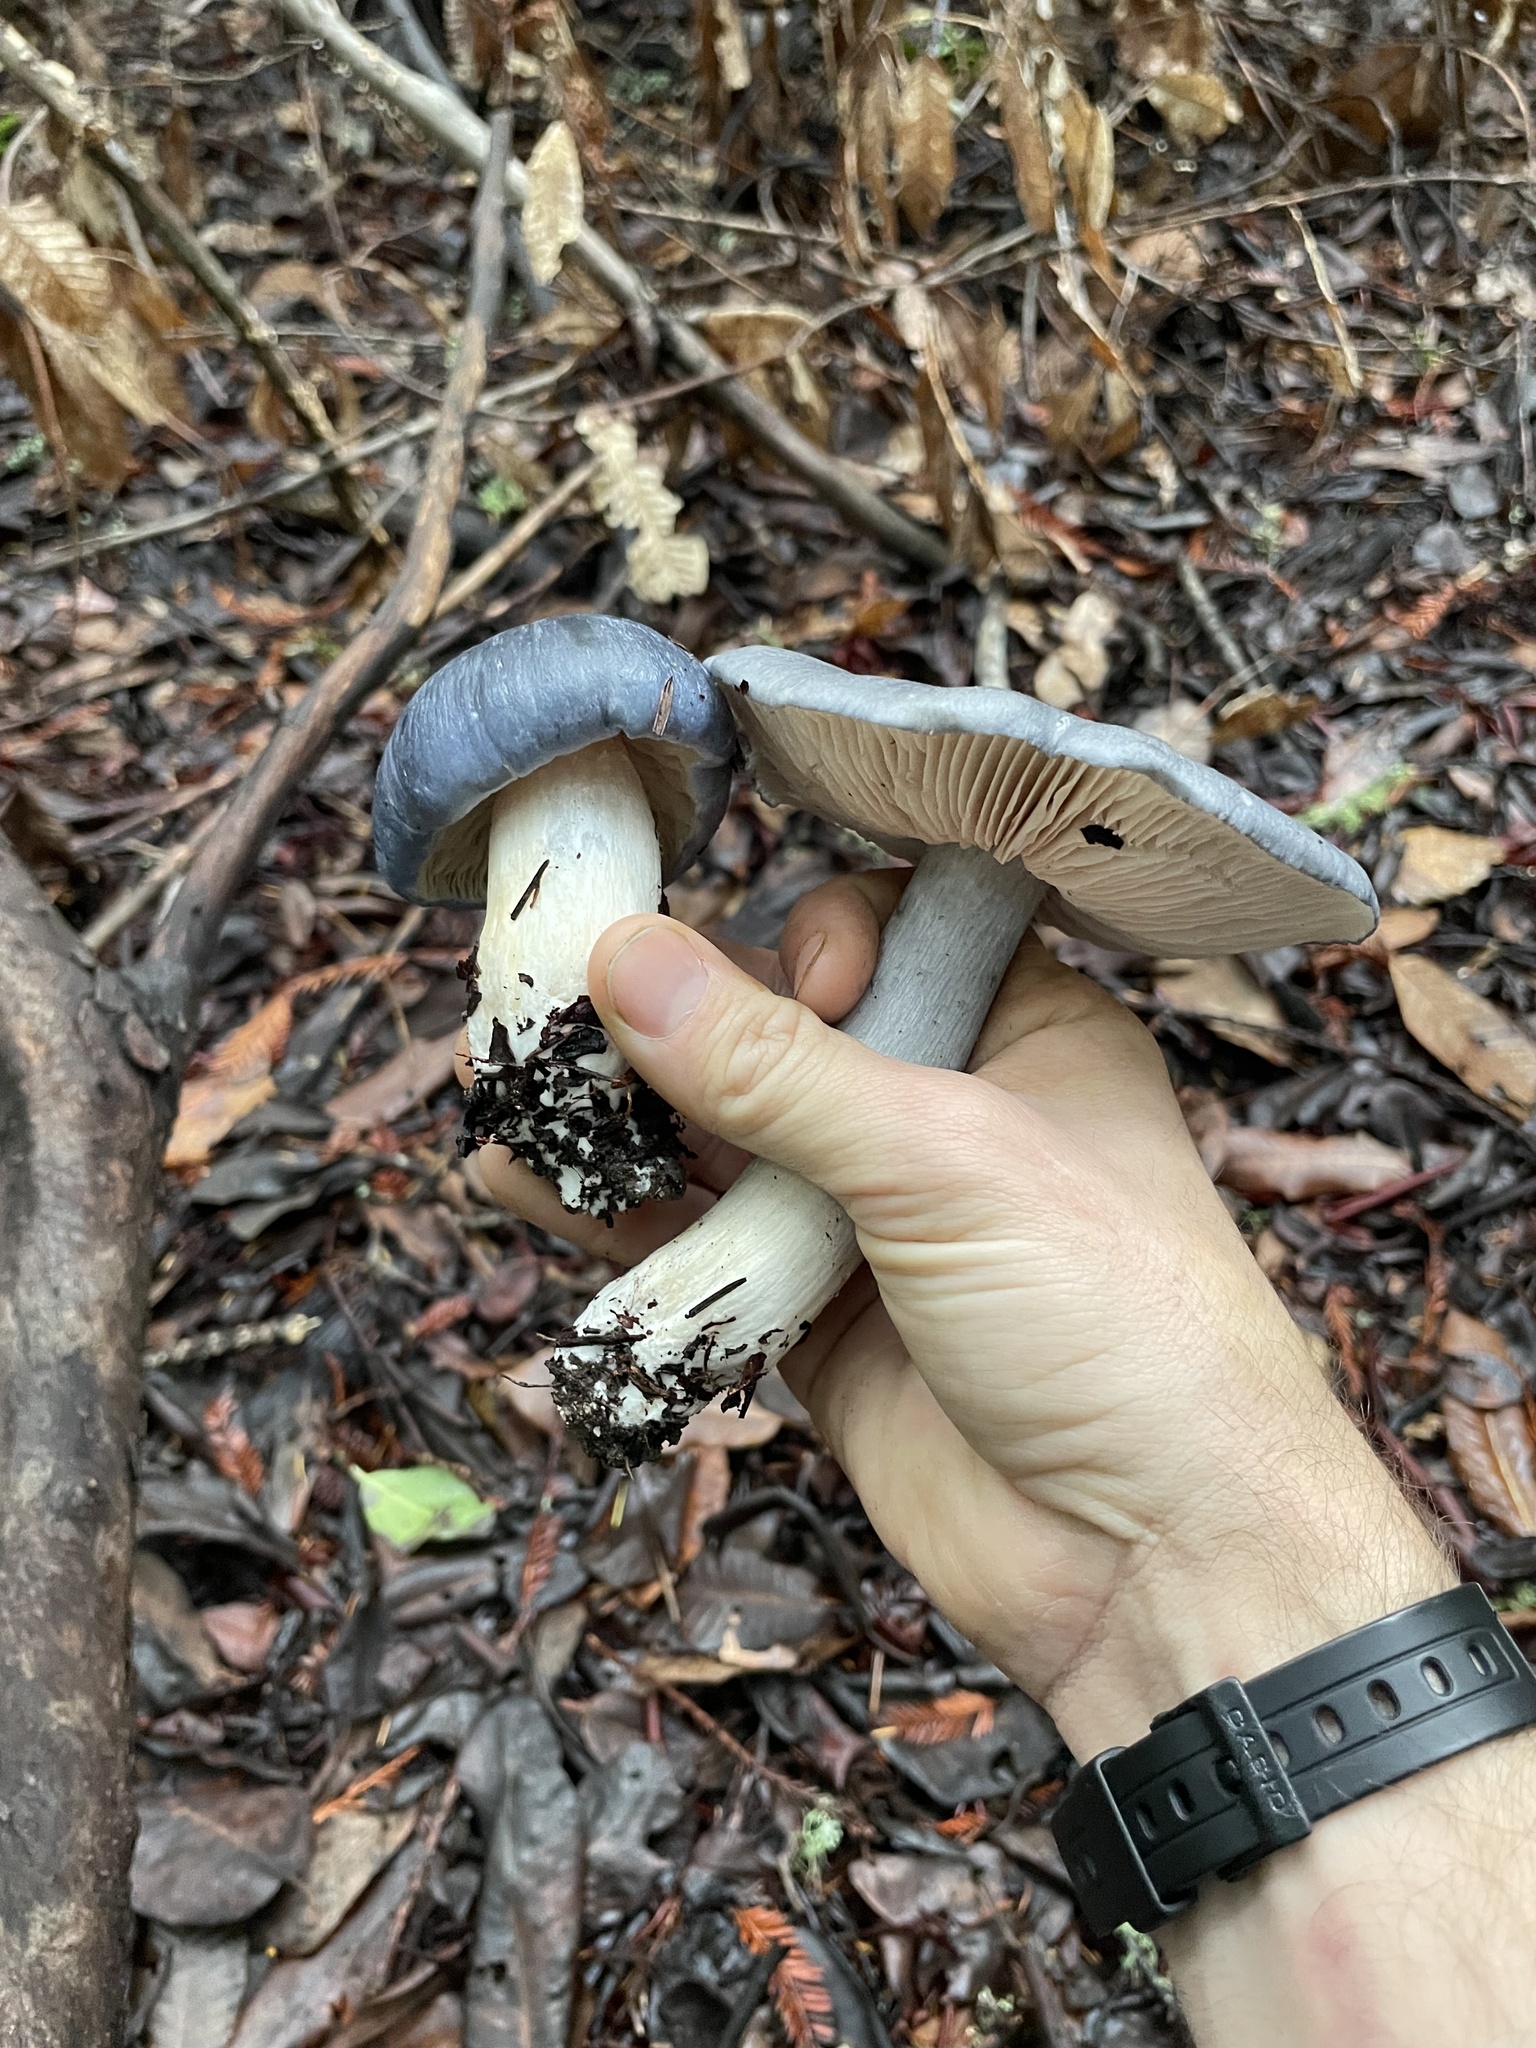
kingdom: Fungi
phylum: Basidiomycota
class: Agaricomycetes
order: Agaricales
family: Entolomataceae
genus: Entoloma
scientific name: Entoloma medianox
